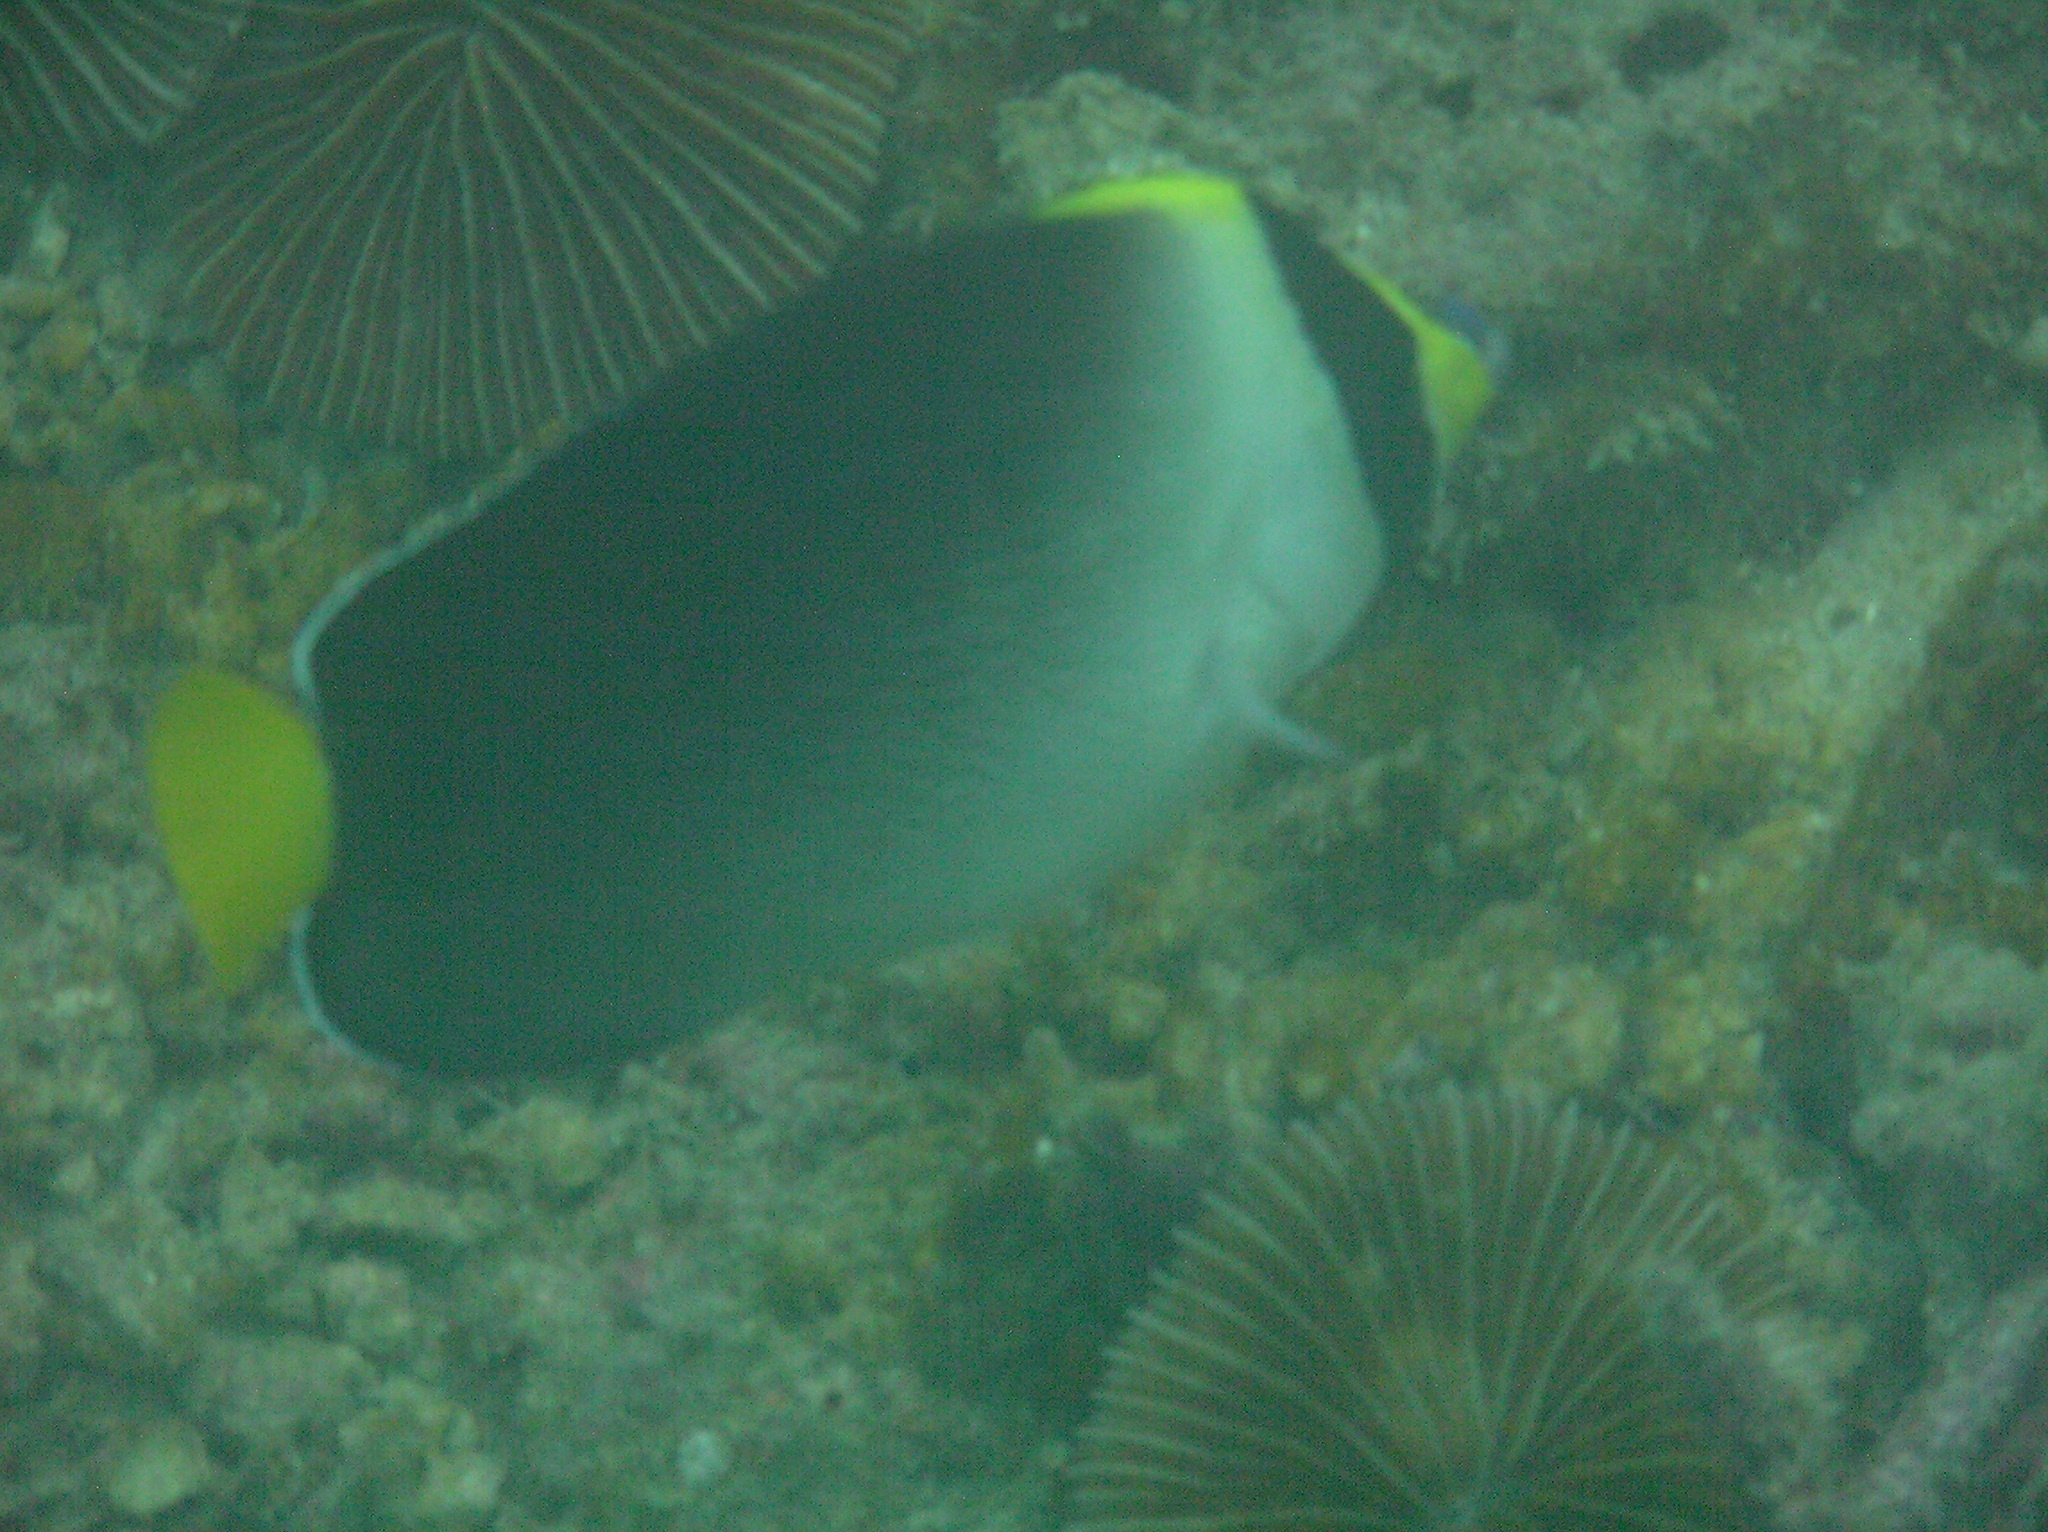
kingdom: Animalia
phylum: Chordata
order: Perciformes
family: Pomacanthidae
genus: Chaetodontoplus
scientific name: Chaetodontoplus mesoleucus
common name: Vermiculated angelfish
